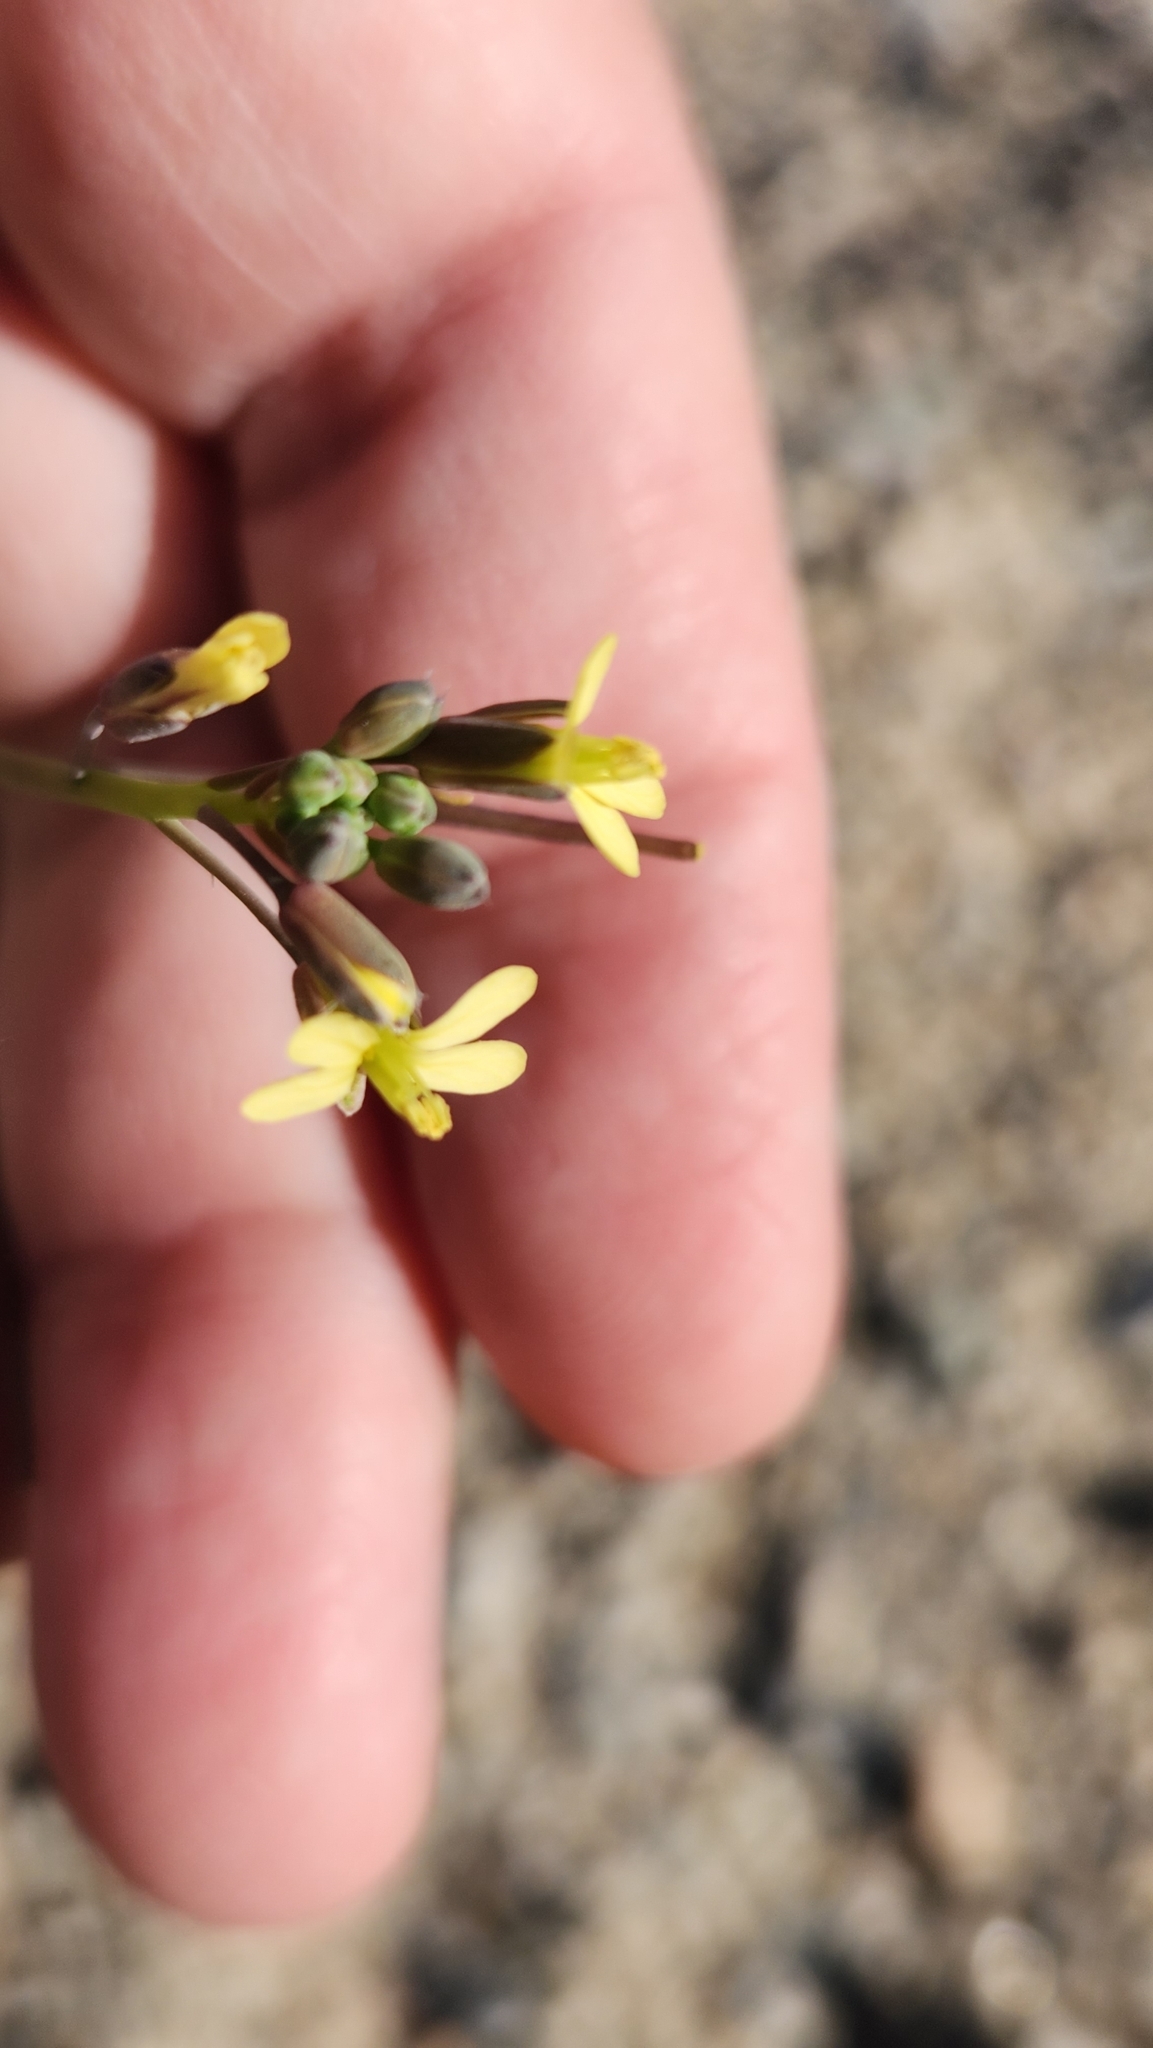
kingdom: Plantae
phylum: Tracheophyta
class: Magnoliopsida
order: Brassicales
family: Brassicaceae
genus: Brassica
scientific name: Brassica tournefortii
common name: Pale cabbage
